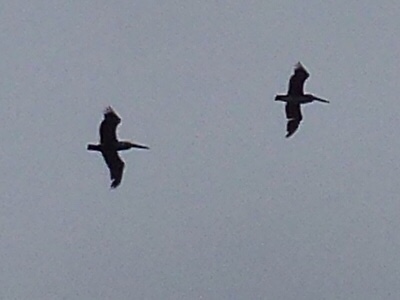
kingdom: Animalia
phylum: Chordata
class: Aves
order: Pelecaniformes
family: Pelecanidae
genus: Pelecanus
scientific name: Pelecanus occidentalis
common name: Brown pelican
